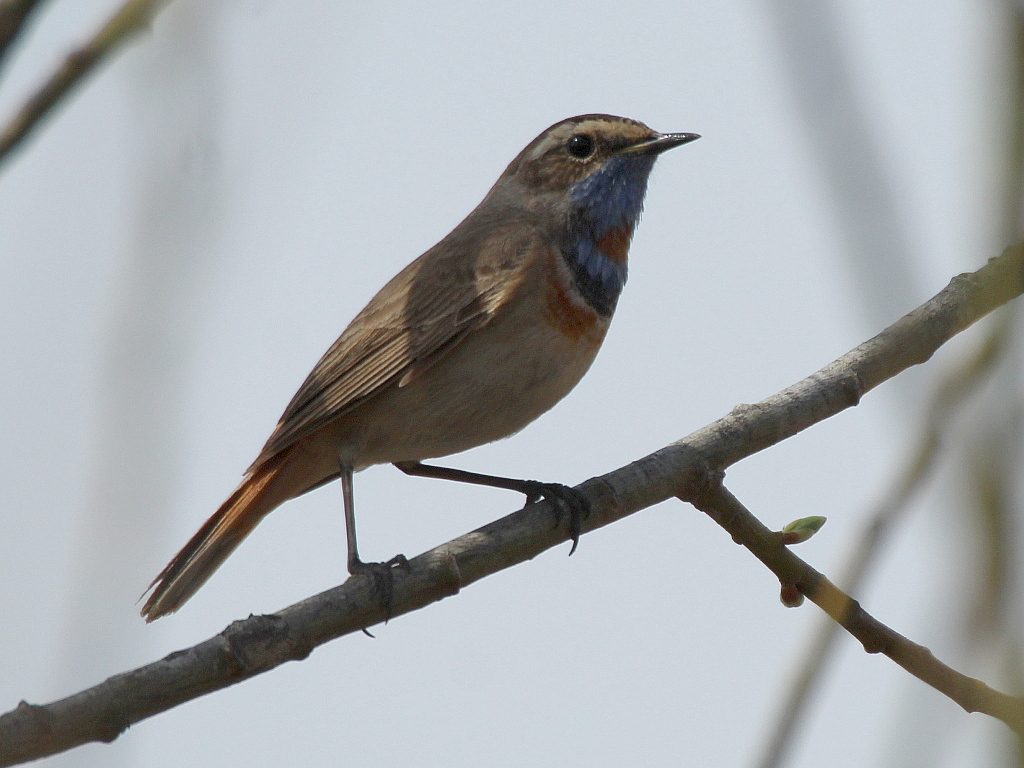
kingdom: Animalia
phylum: Chordata
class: Aves
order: Passeriformes
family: Muscicapidae
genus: Luscinia
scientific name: Luscinia svecica
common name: Bluethroat
